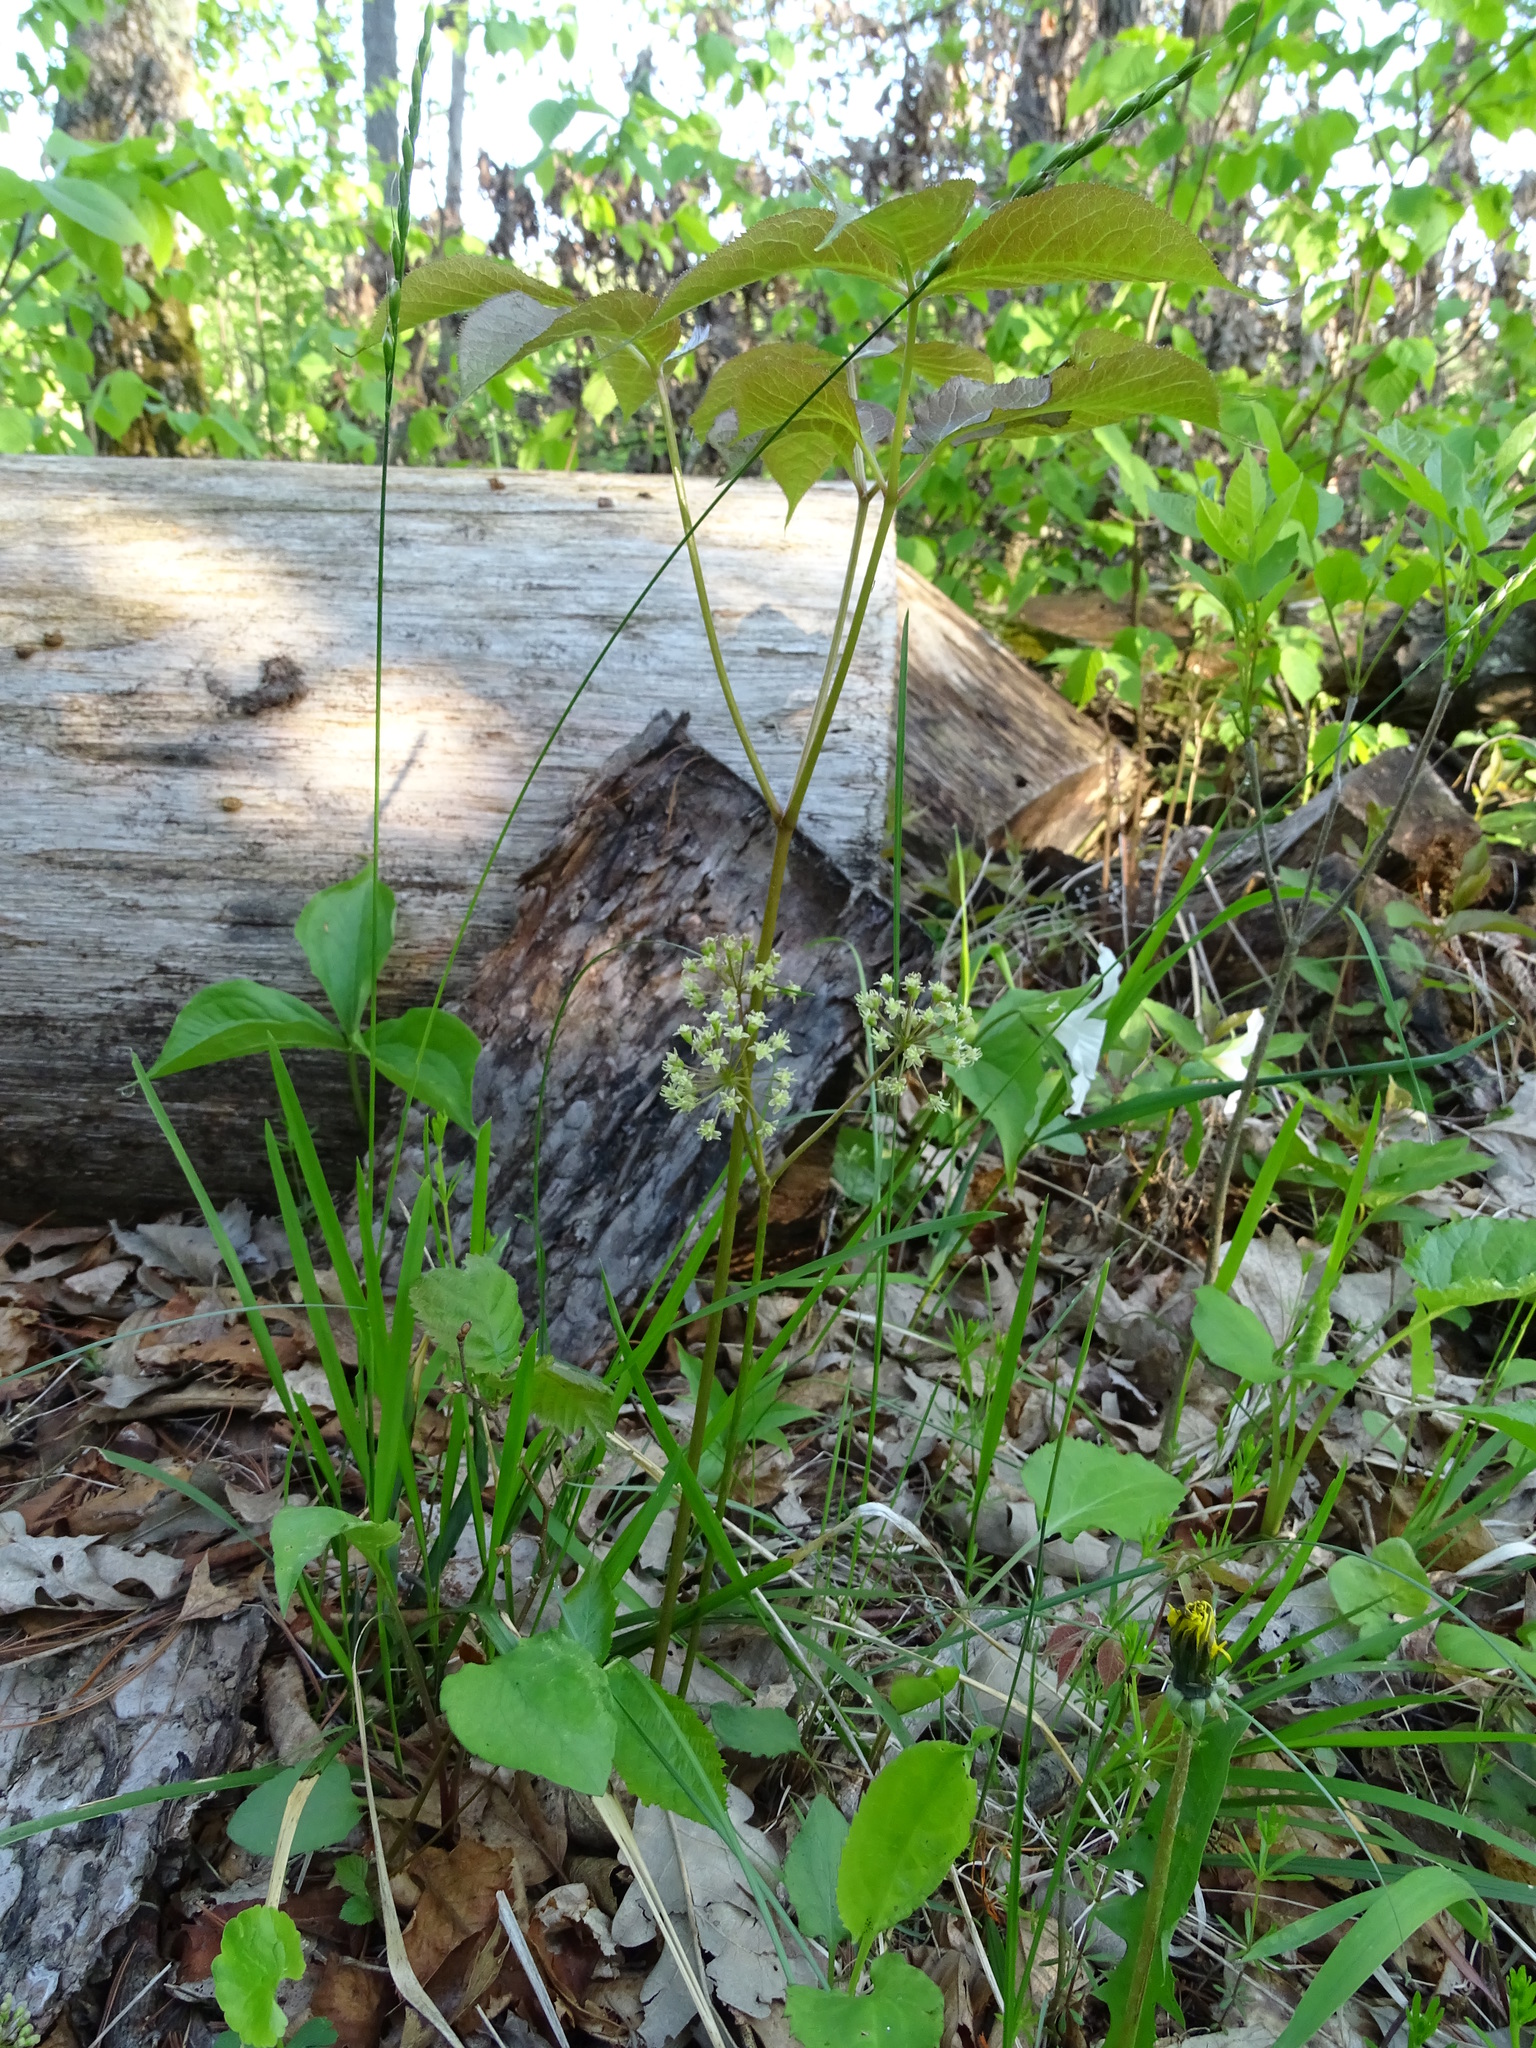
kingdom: Plantae
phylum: Tracheophyta
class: Magnoliopsida
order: Apiales
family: Araliaceae
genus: Aralia
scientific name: Aralia nudicaulis
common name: Wild sarsaparilla
